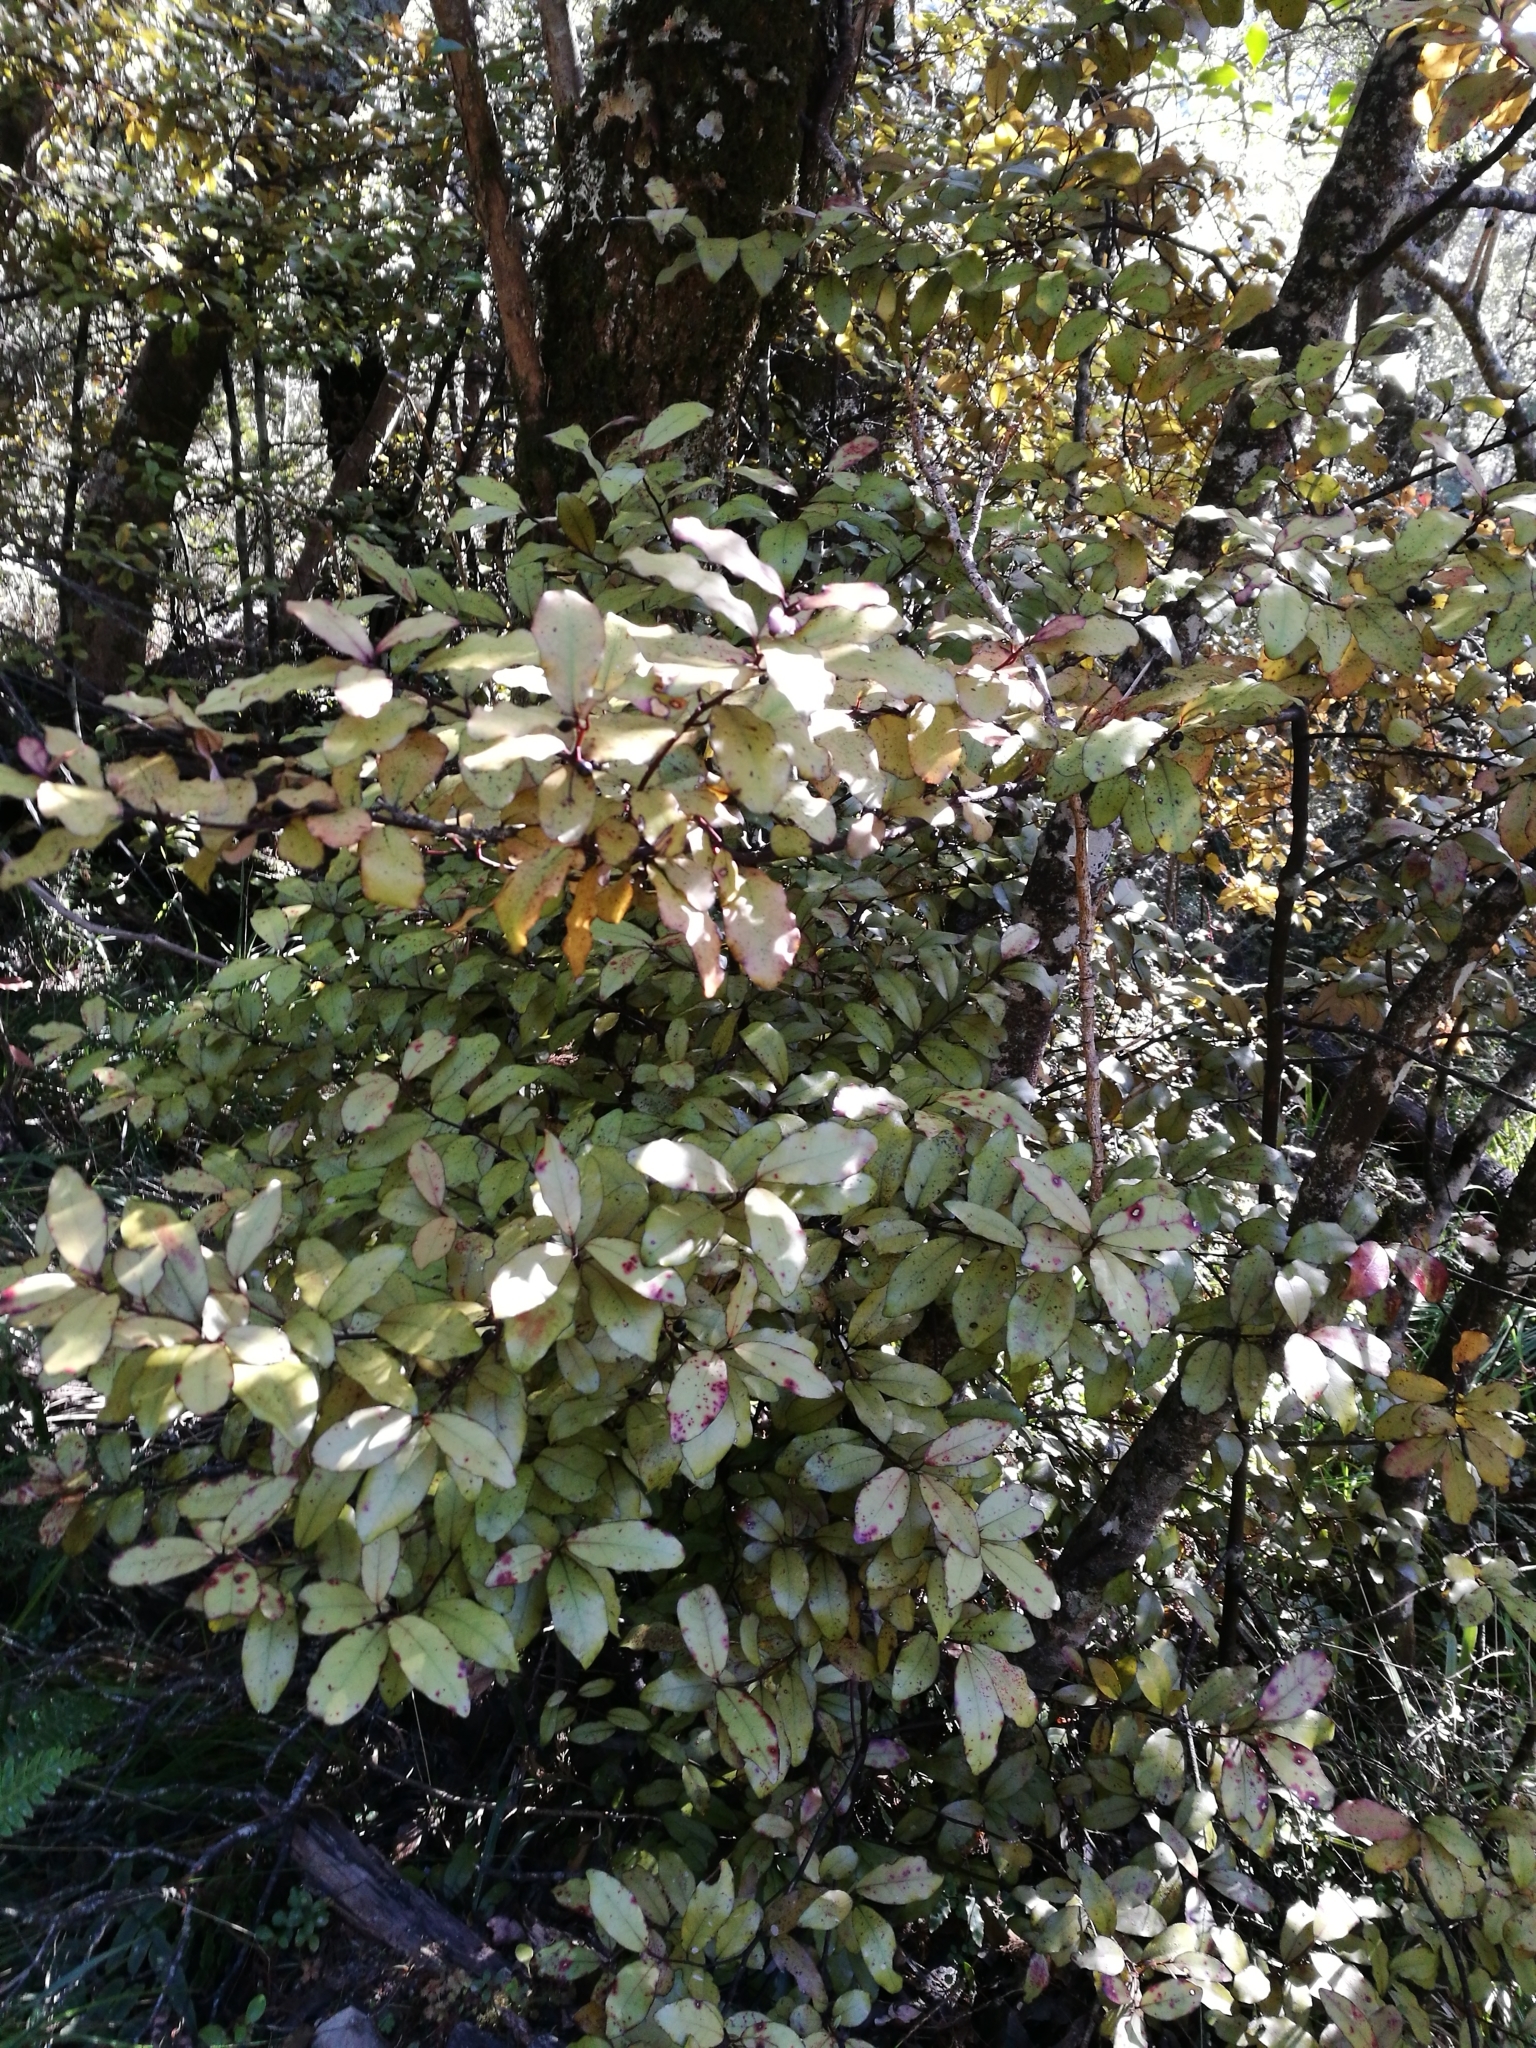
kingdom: Plantae
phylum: Tracheophyta
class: Magnoliopsida
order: Canellales
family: Winteraceae
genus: Pseudowintera
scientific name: Pseudowintera colorata
